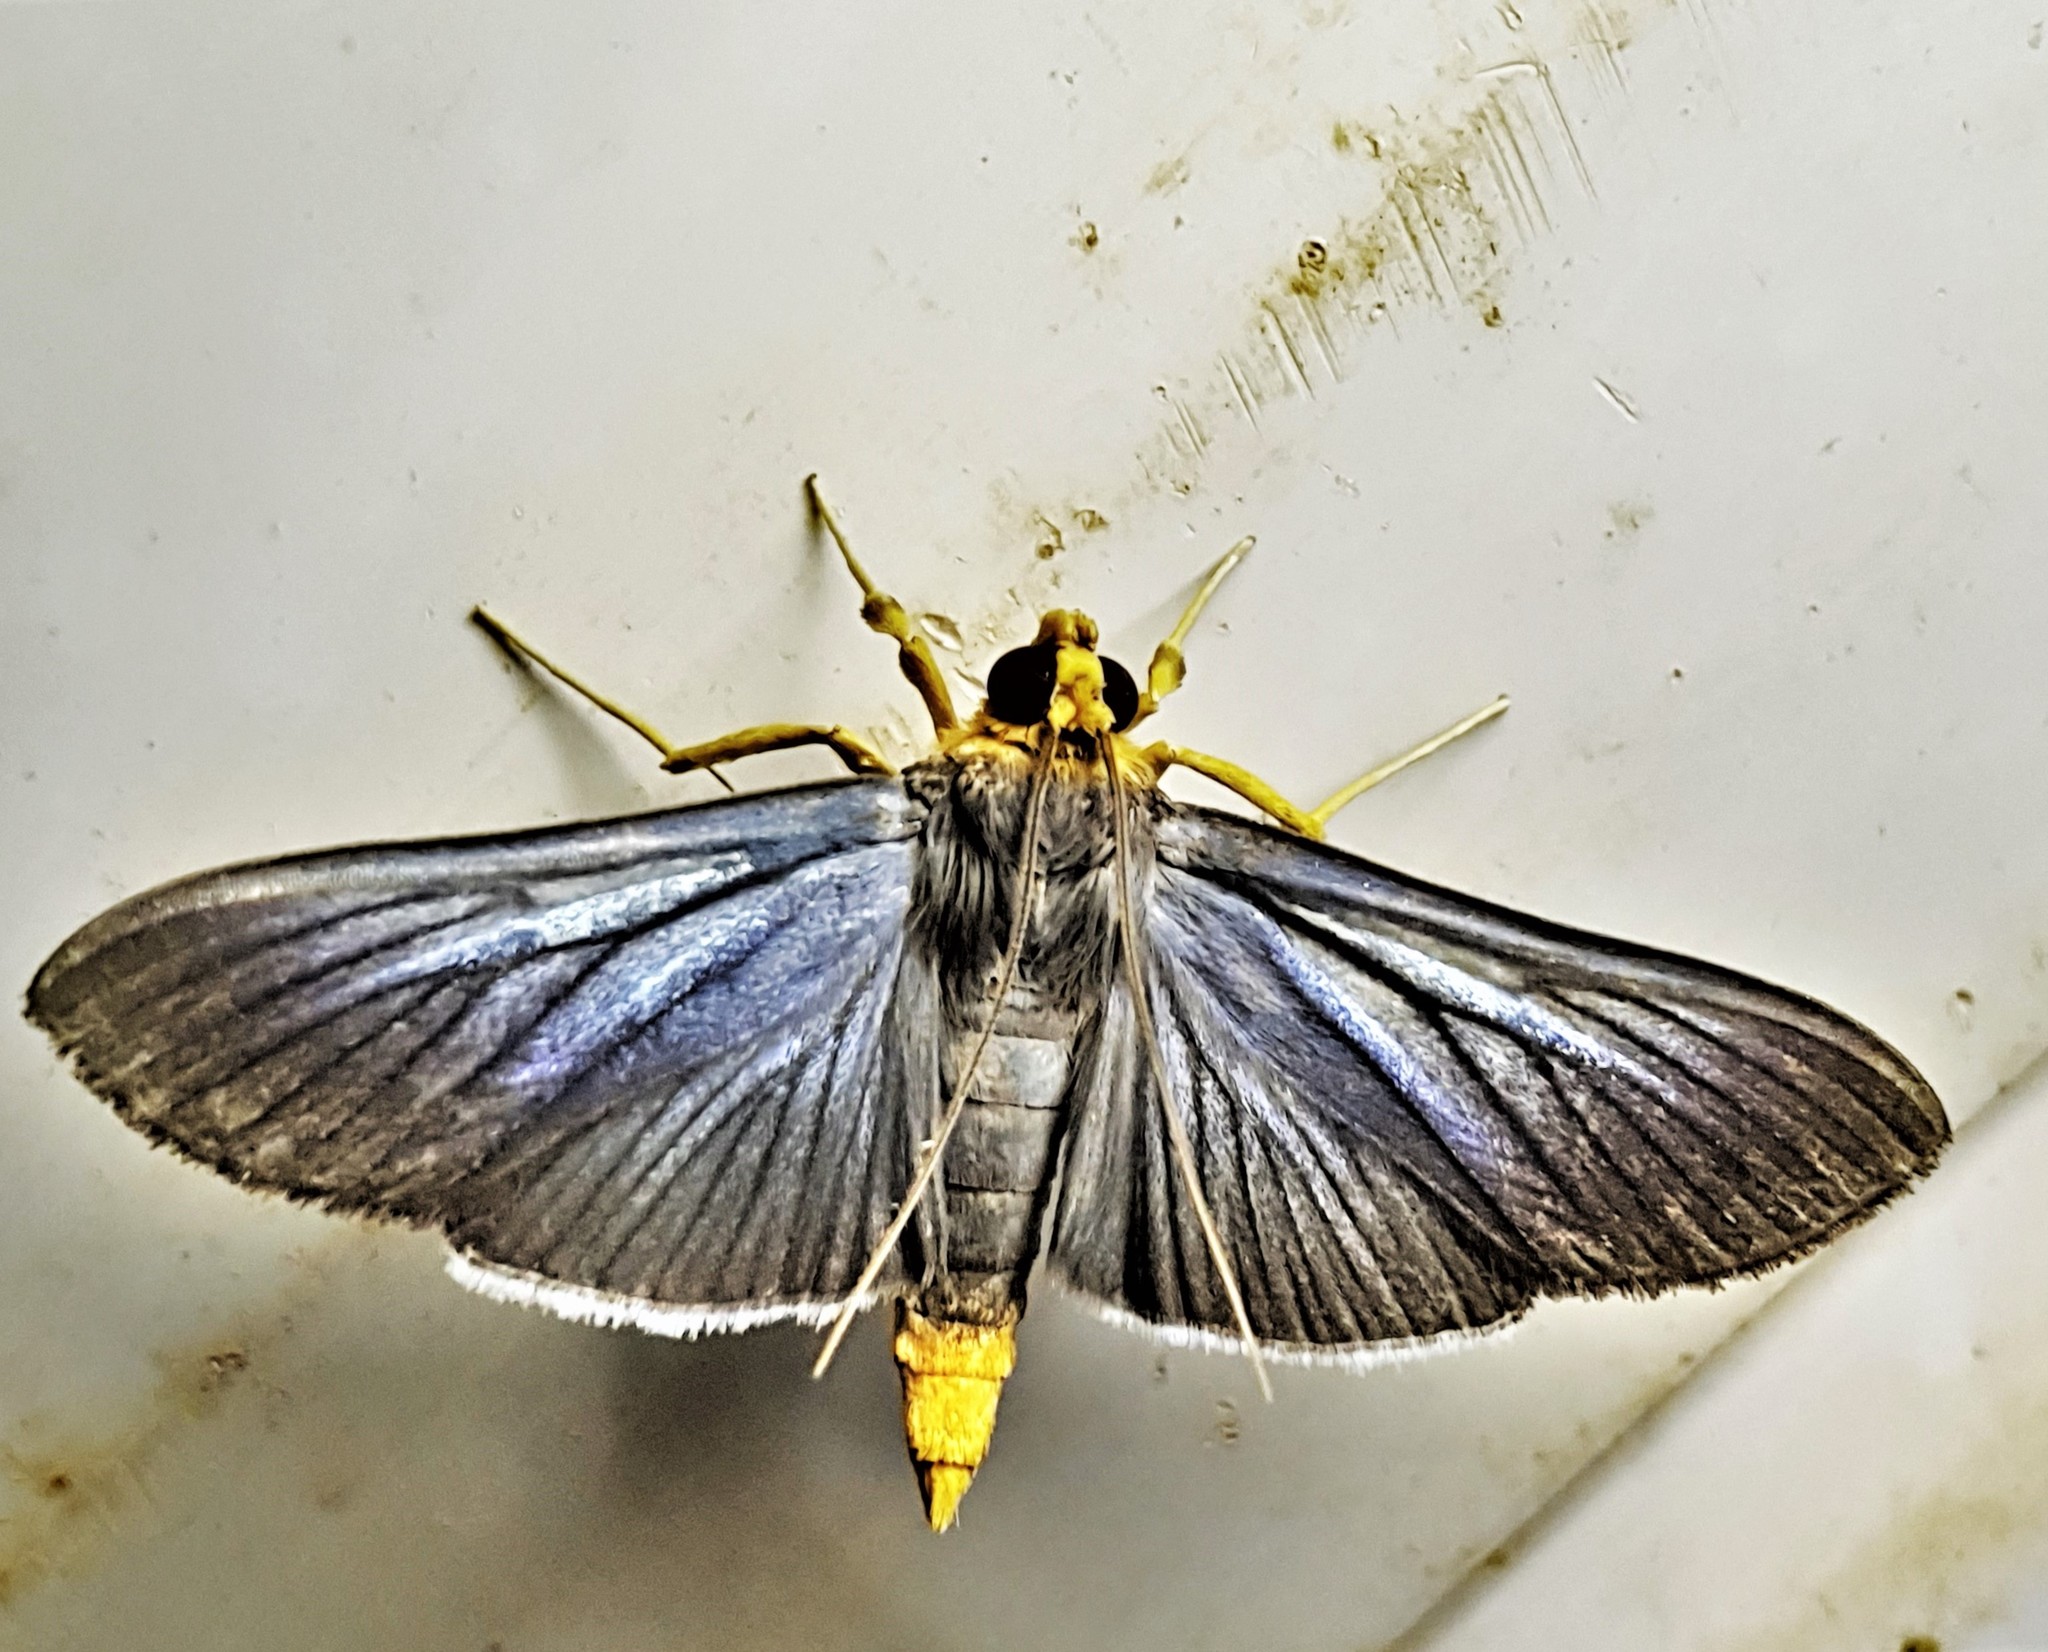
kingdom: Animalia
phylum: Arthropoda
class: Insecta
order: Lepidoptera
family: Crambidae
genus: Omiodes
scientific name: Omiodes fulvicauda
